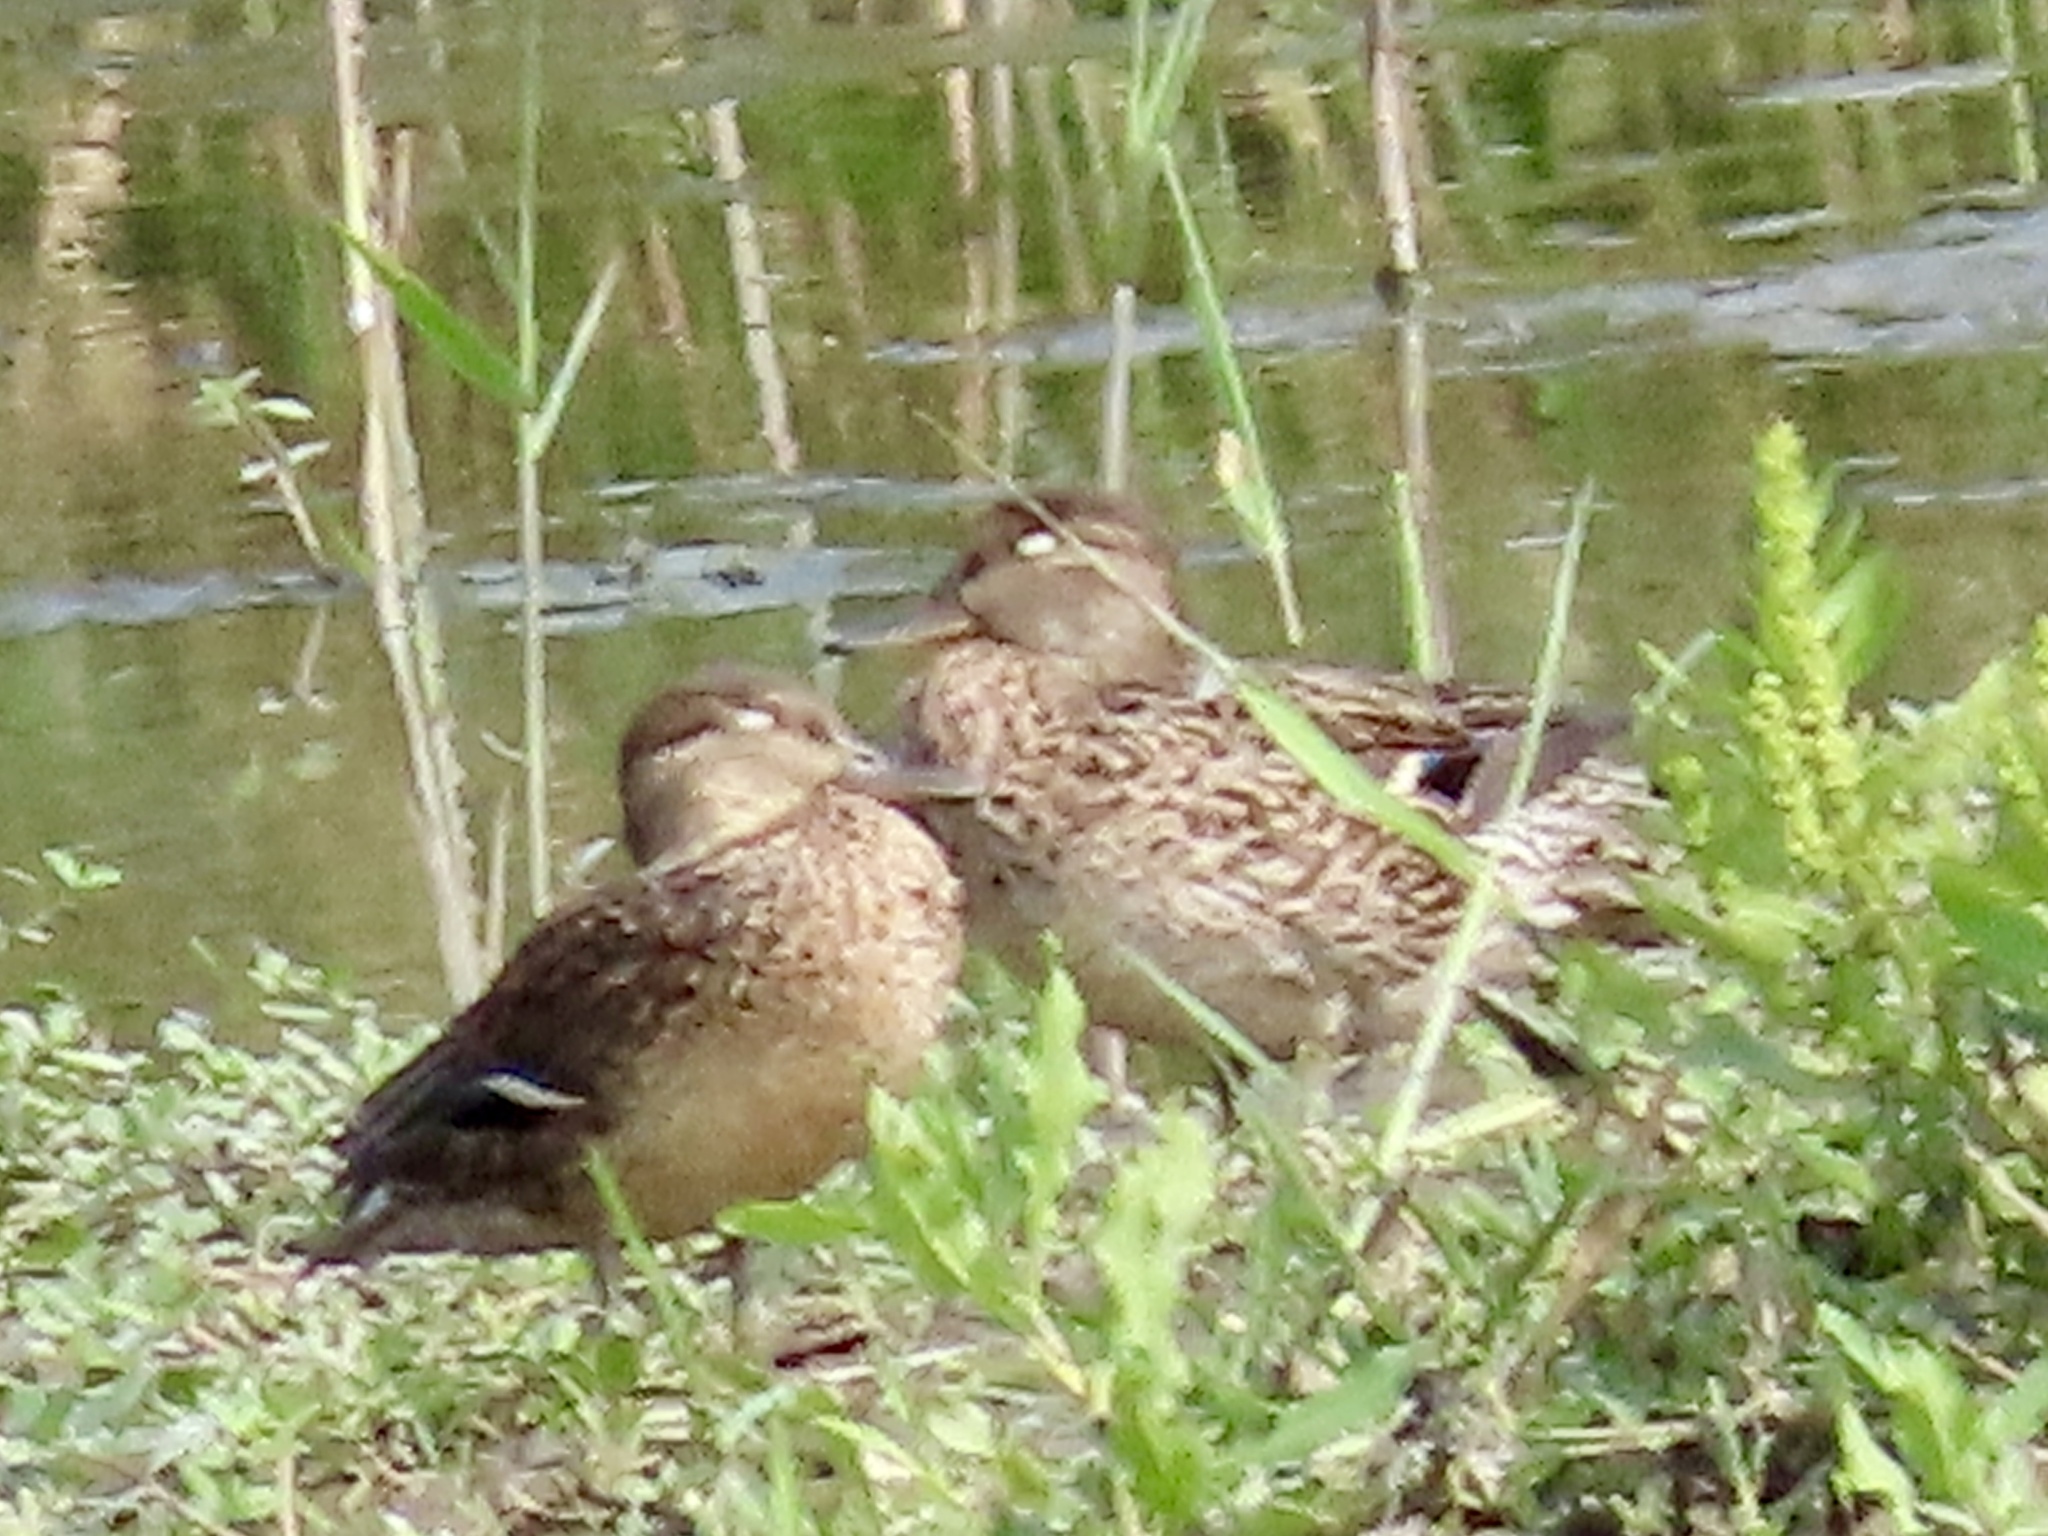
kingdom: Animalia
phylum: Chordata
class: Aves
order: Anseriformes
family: Anatidae
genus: Anas
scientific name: Anas crecca
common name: Eurasian teal
